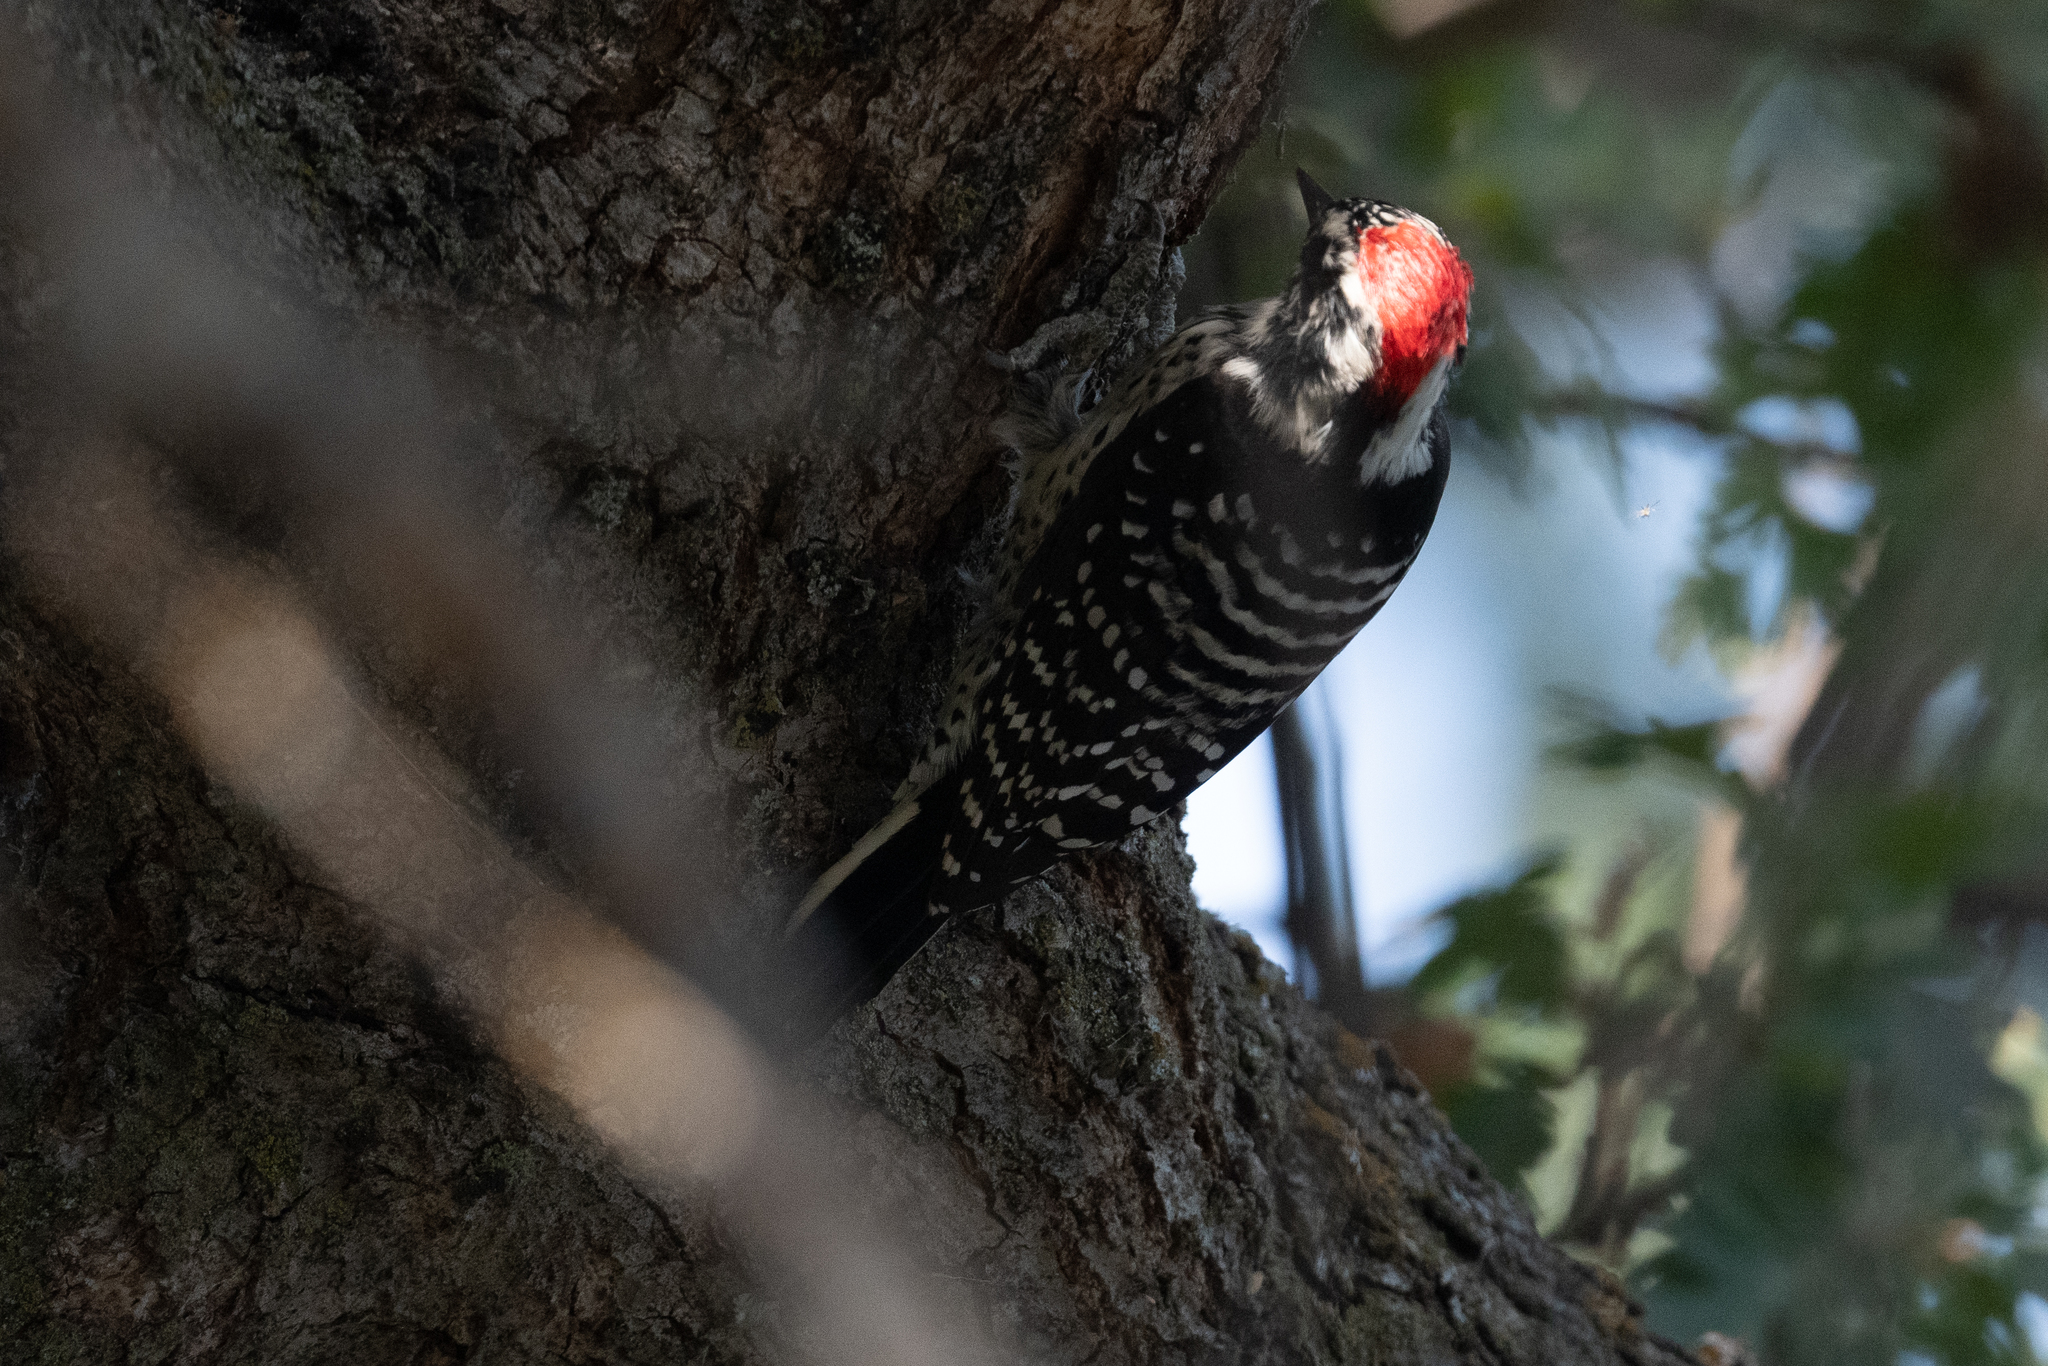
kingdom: Animalia
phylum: Chordata
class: Aves
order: Piciformes
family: Picidae
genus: Dryobates
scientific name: Dryobates nuttallii
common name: Nuttall's woodpecker
